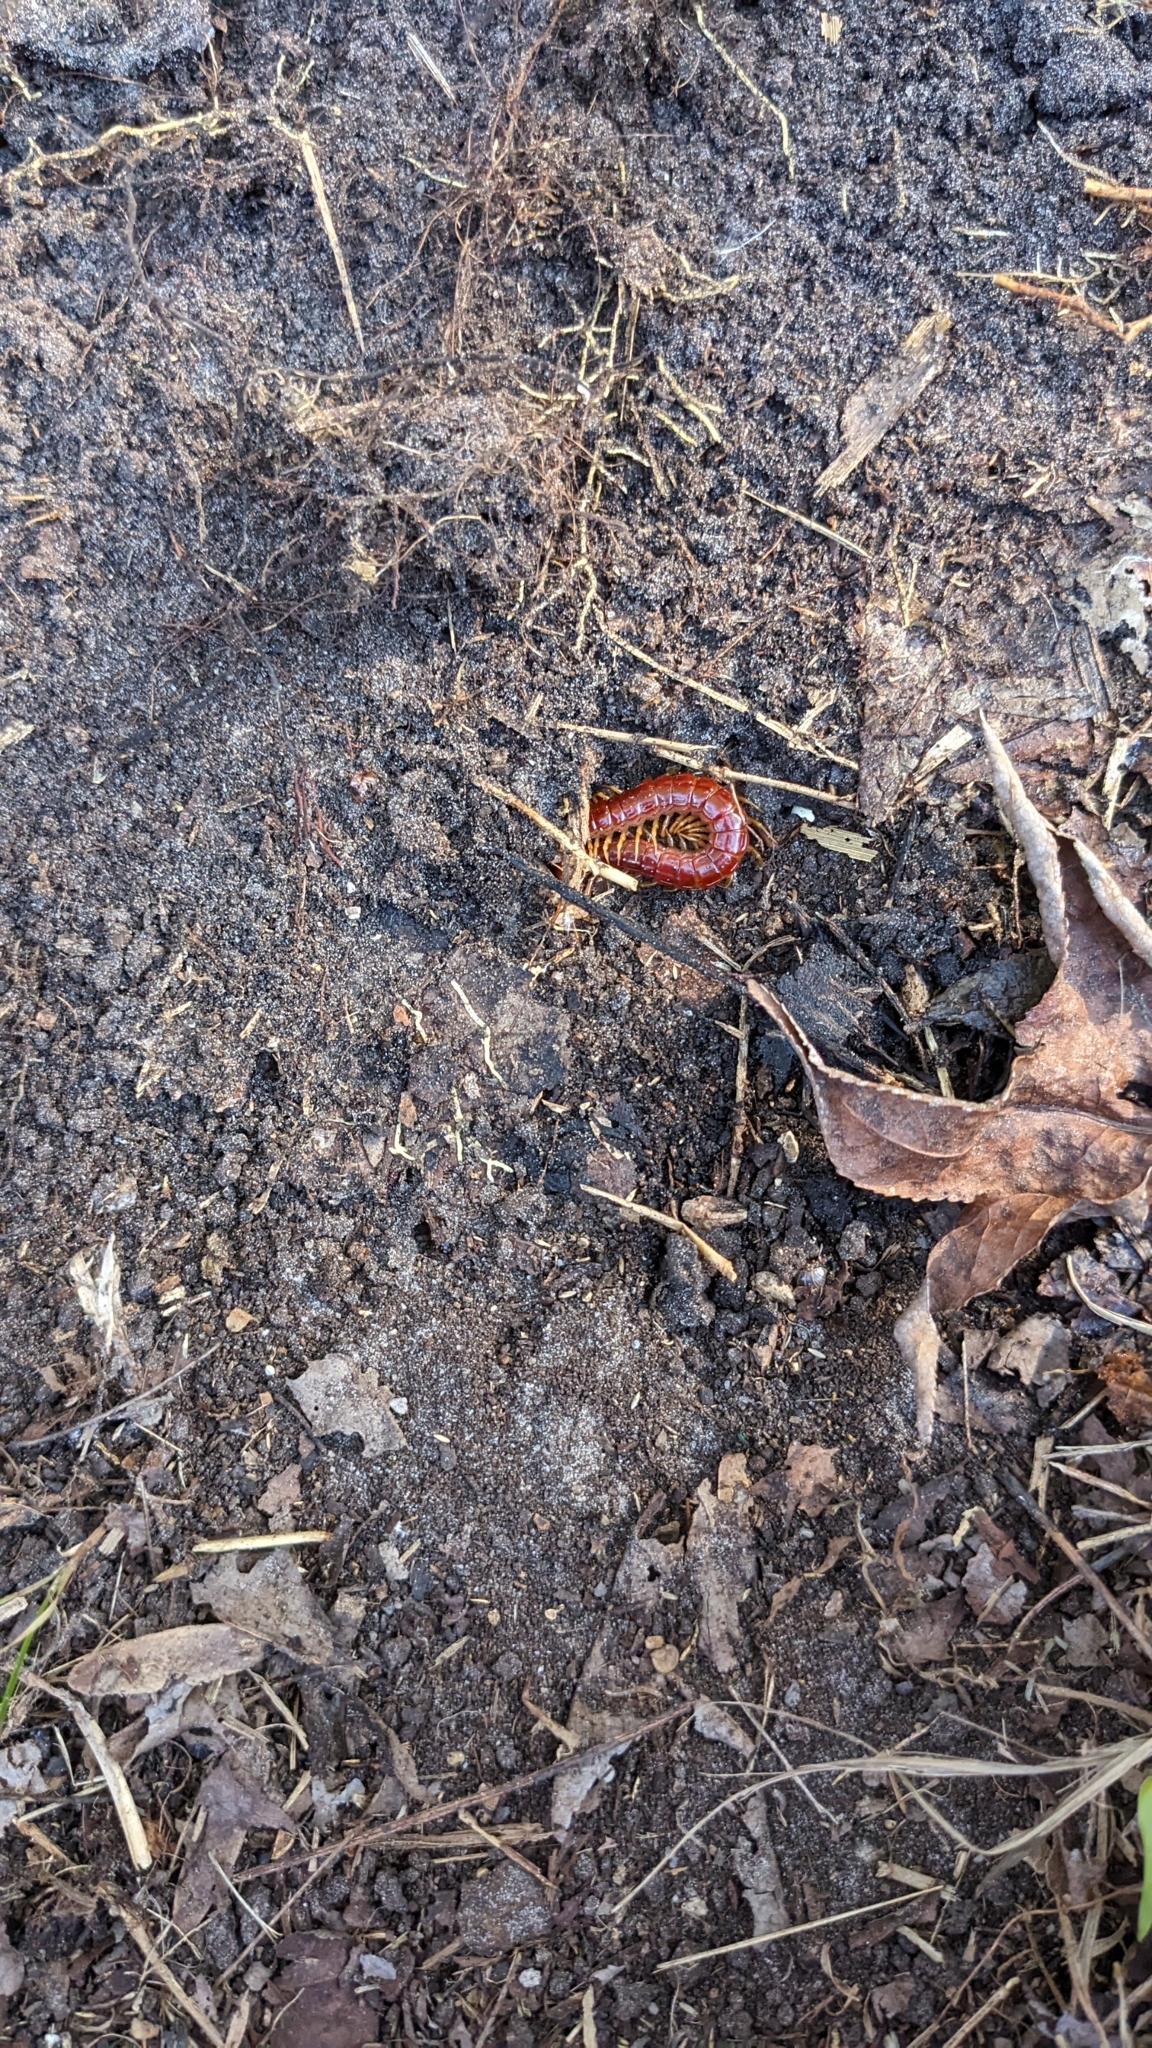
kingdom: Animalia
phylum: Arthropoda
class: Chilopoda
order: Scolopendromorpha
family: Scolopocryptopidae
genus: Scolopocryptops
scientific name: Scolopocryptops sexspinosus
